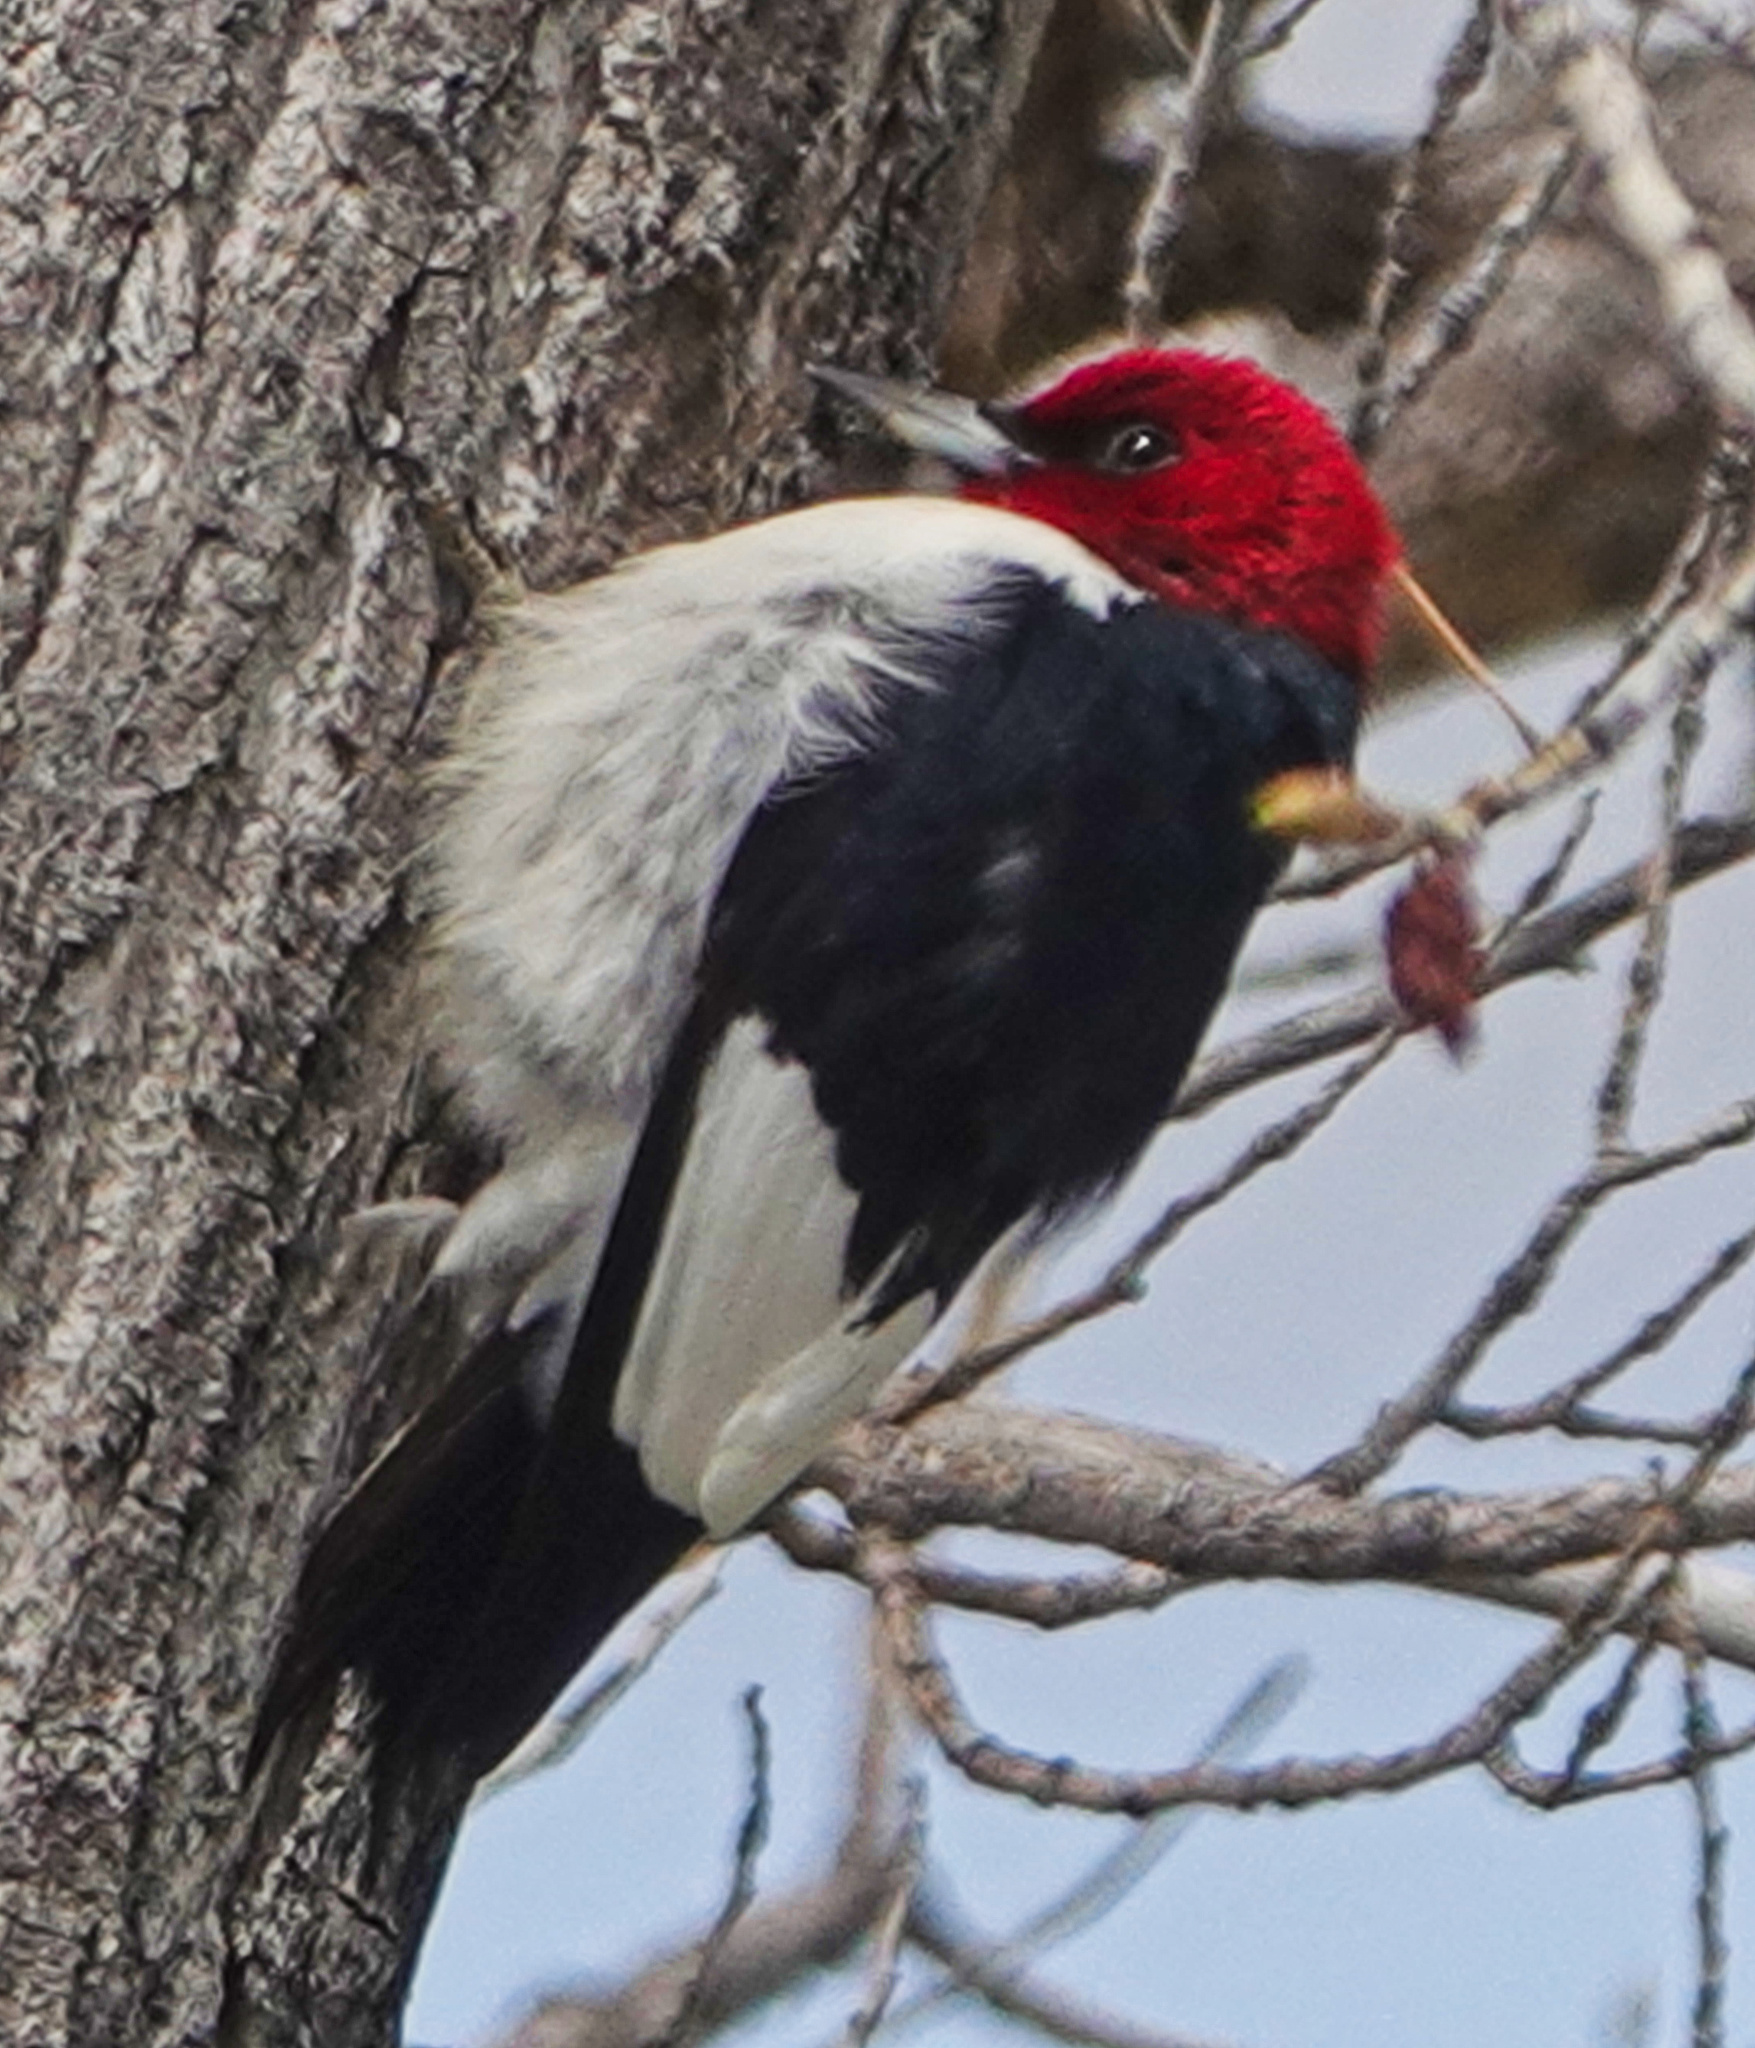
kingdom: Animalia
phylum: Chordata
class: Aves
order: Piciformes
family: Picidae
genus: Melanerpes
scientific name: Melanerpes erythrocephalus
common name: Red-headed woodpecker
